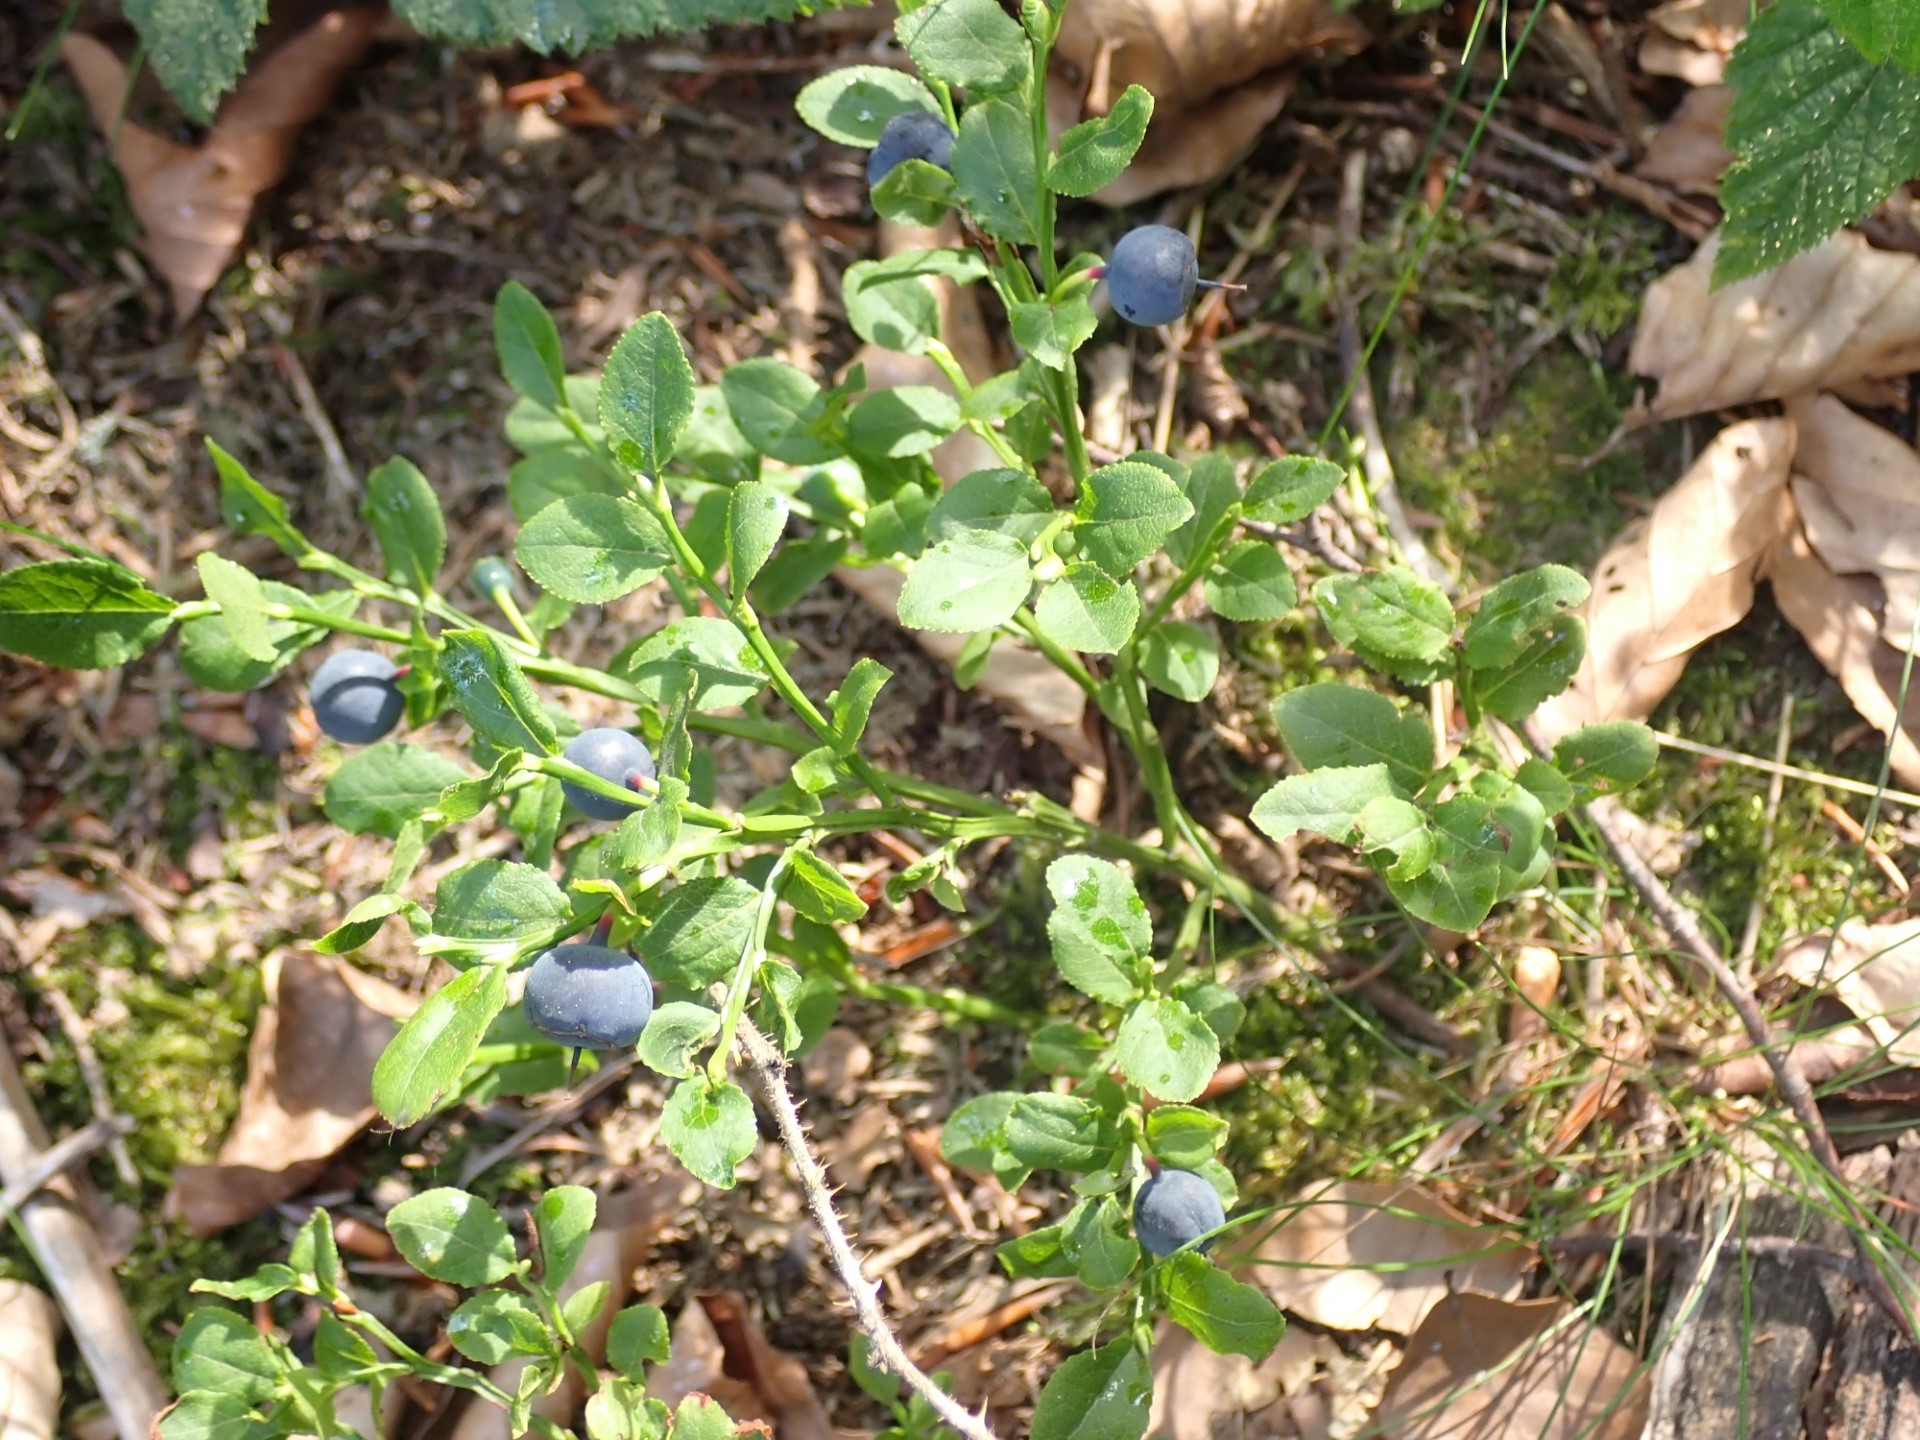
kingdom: Plantae
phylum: Tracheophyta
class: Magnoliopsida
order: Ericales
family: Ericaceae
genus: Vaccinium
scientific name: Vaccinium myrtillus
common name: Bilberry
